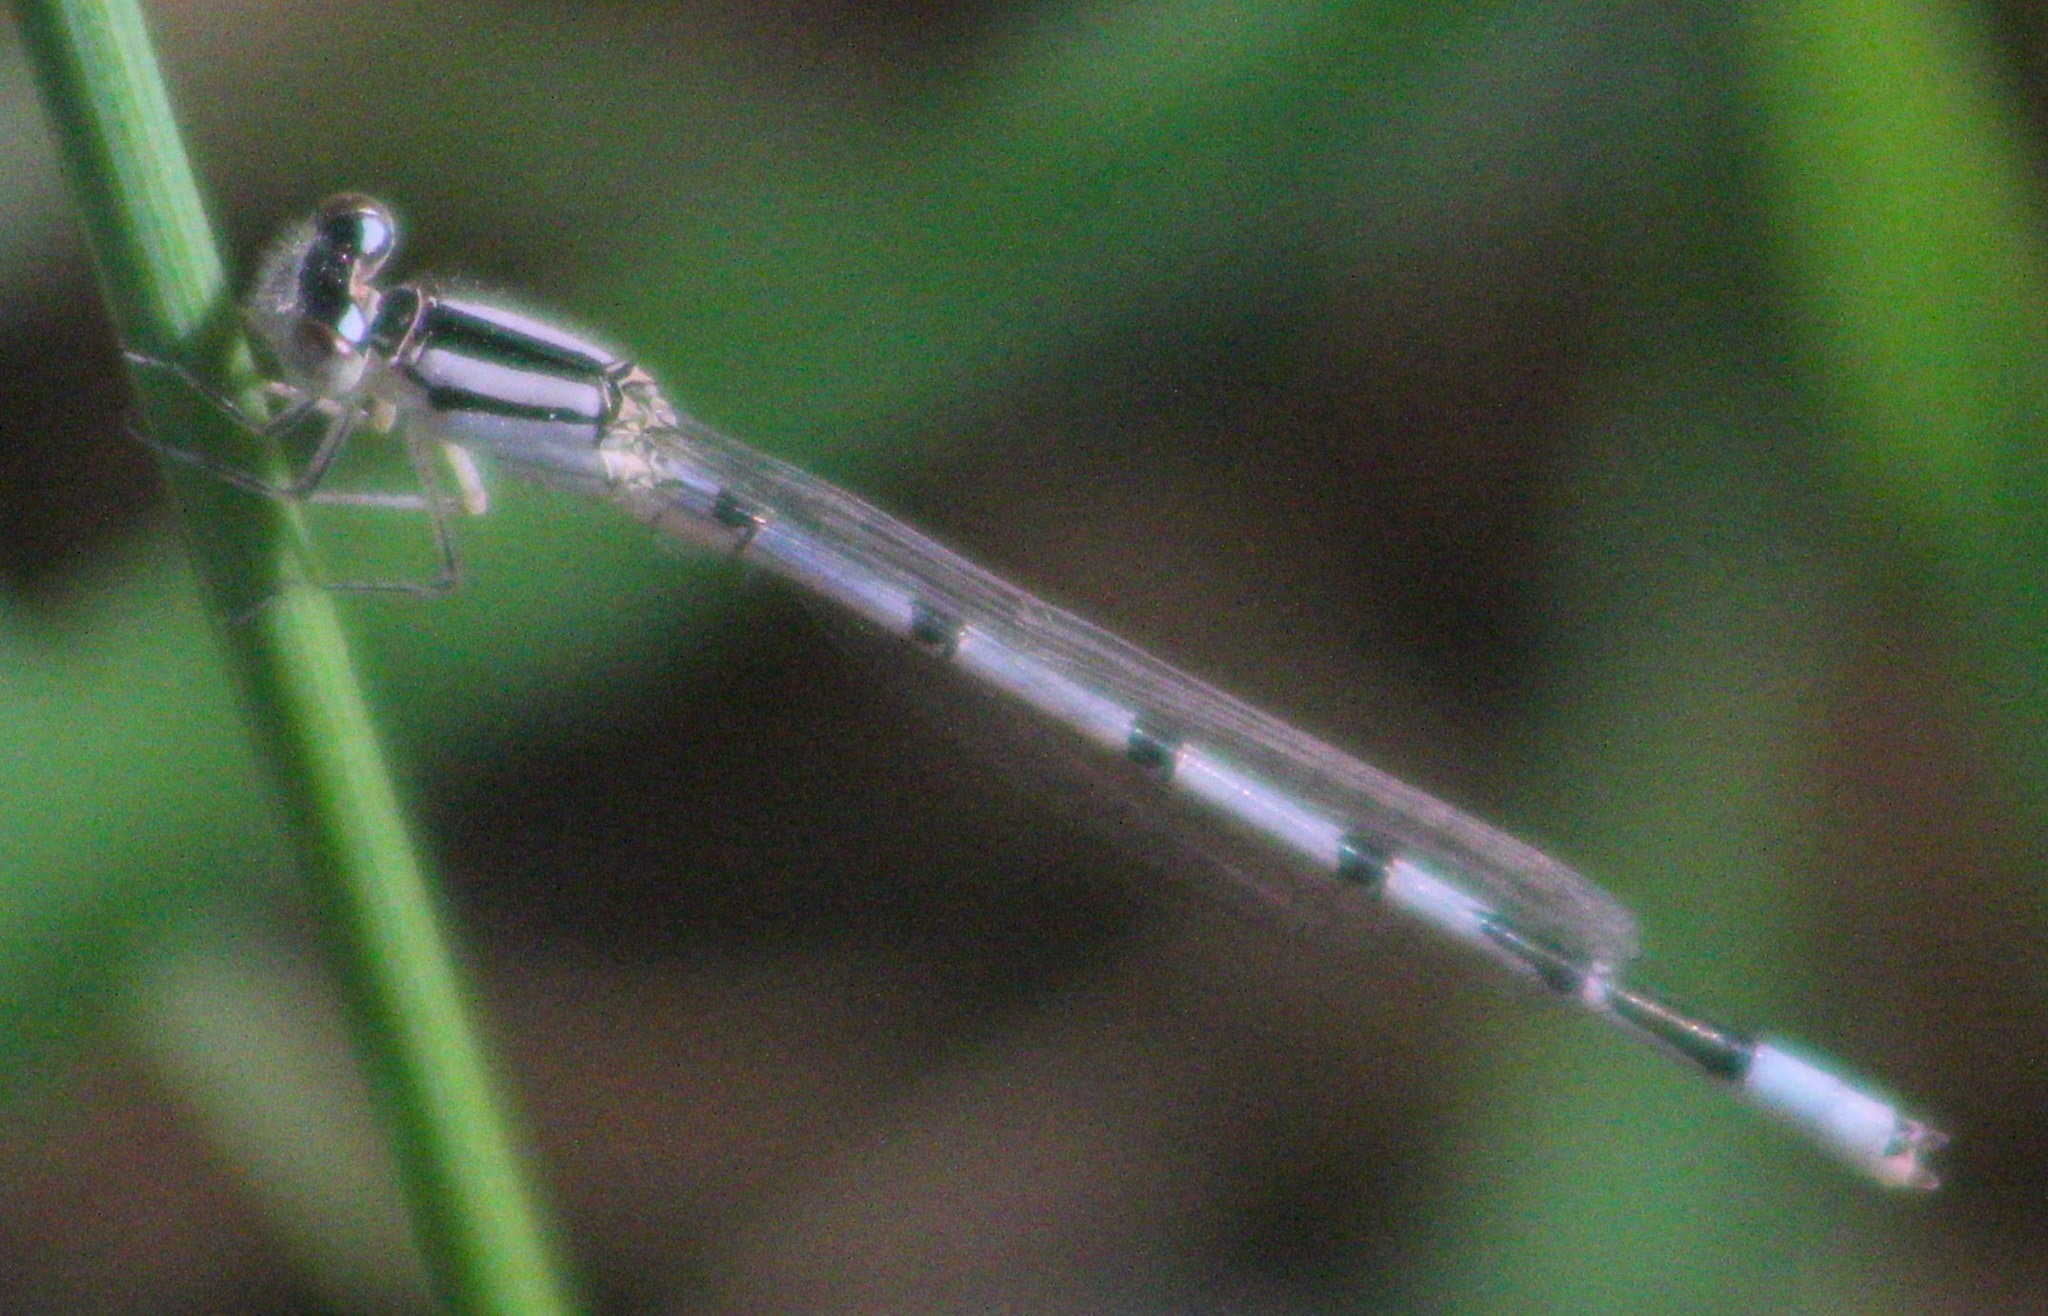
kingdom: Animalia
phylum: Arthropoda
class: Insecta
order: Odonata
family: Coenagrionidae
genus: Enallagma
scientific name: Enallagma civile
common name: Damselfly
